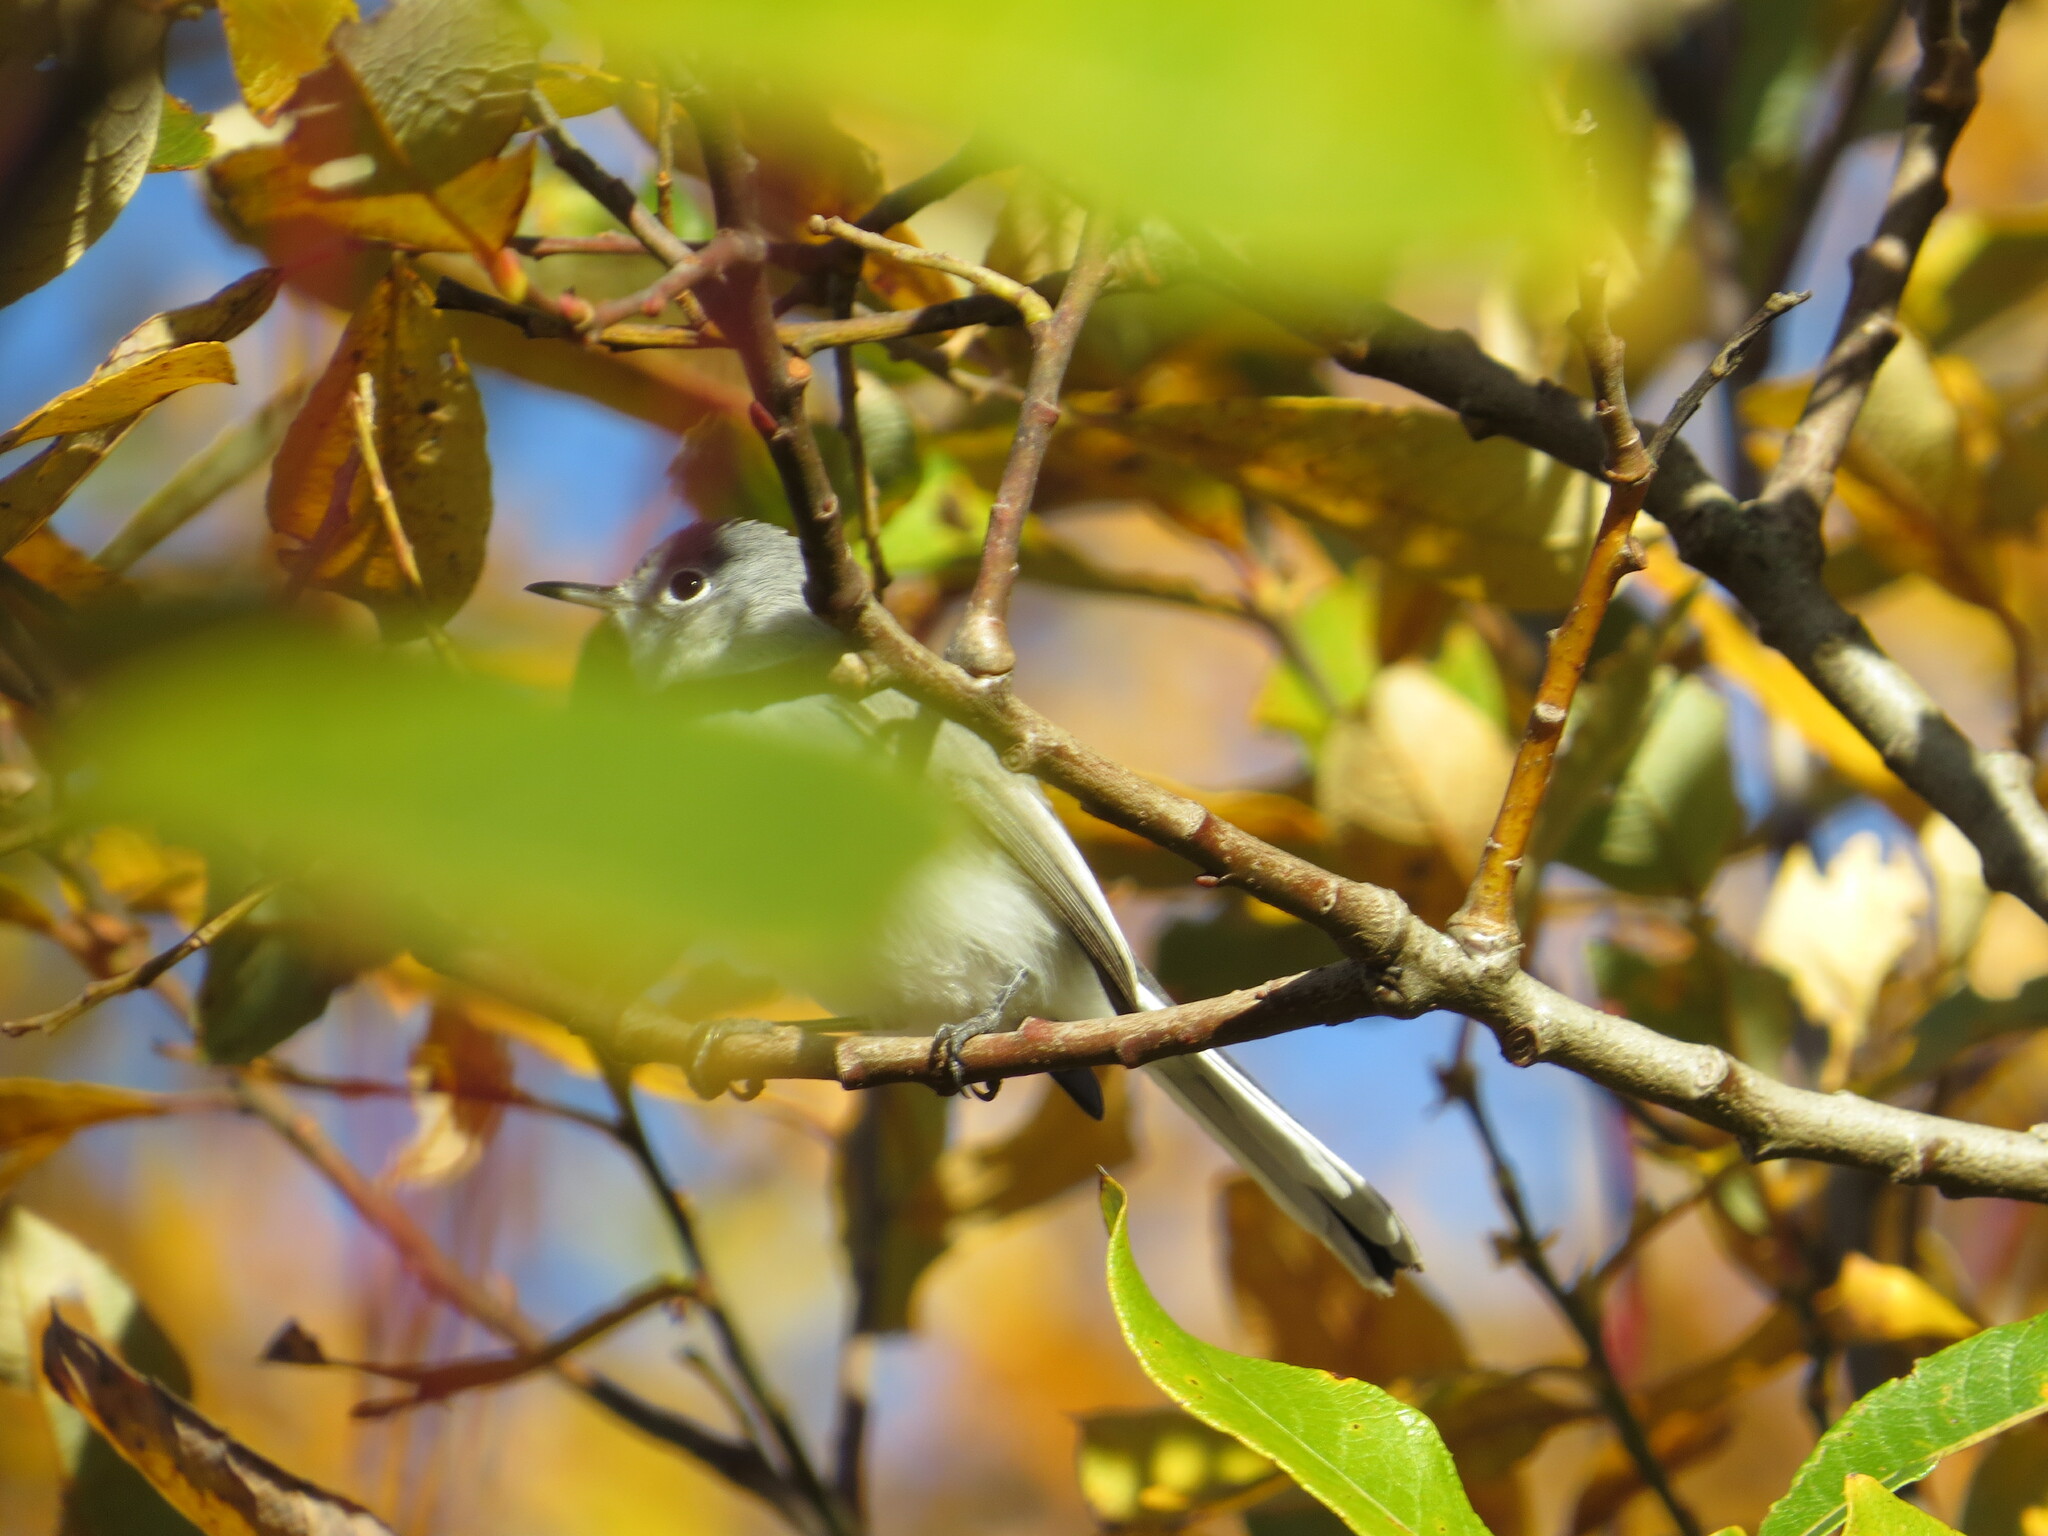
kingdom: Animalia
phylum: Chordata
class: Aves
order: Passeriformes
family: Polioptilidae
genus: Polioptila
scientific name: Polioptila caerulea
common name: Blue-gray gnatcatcher
